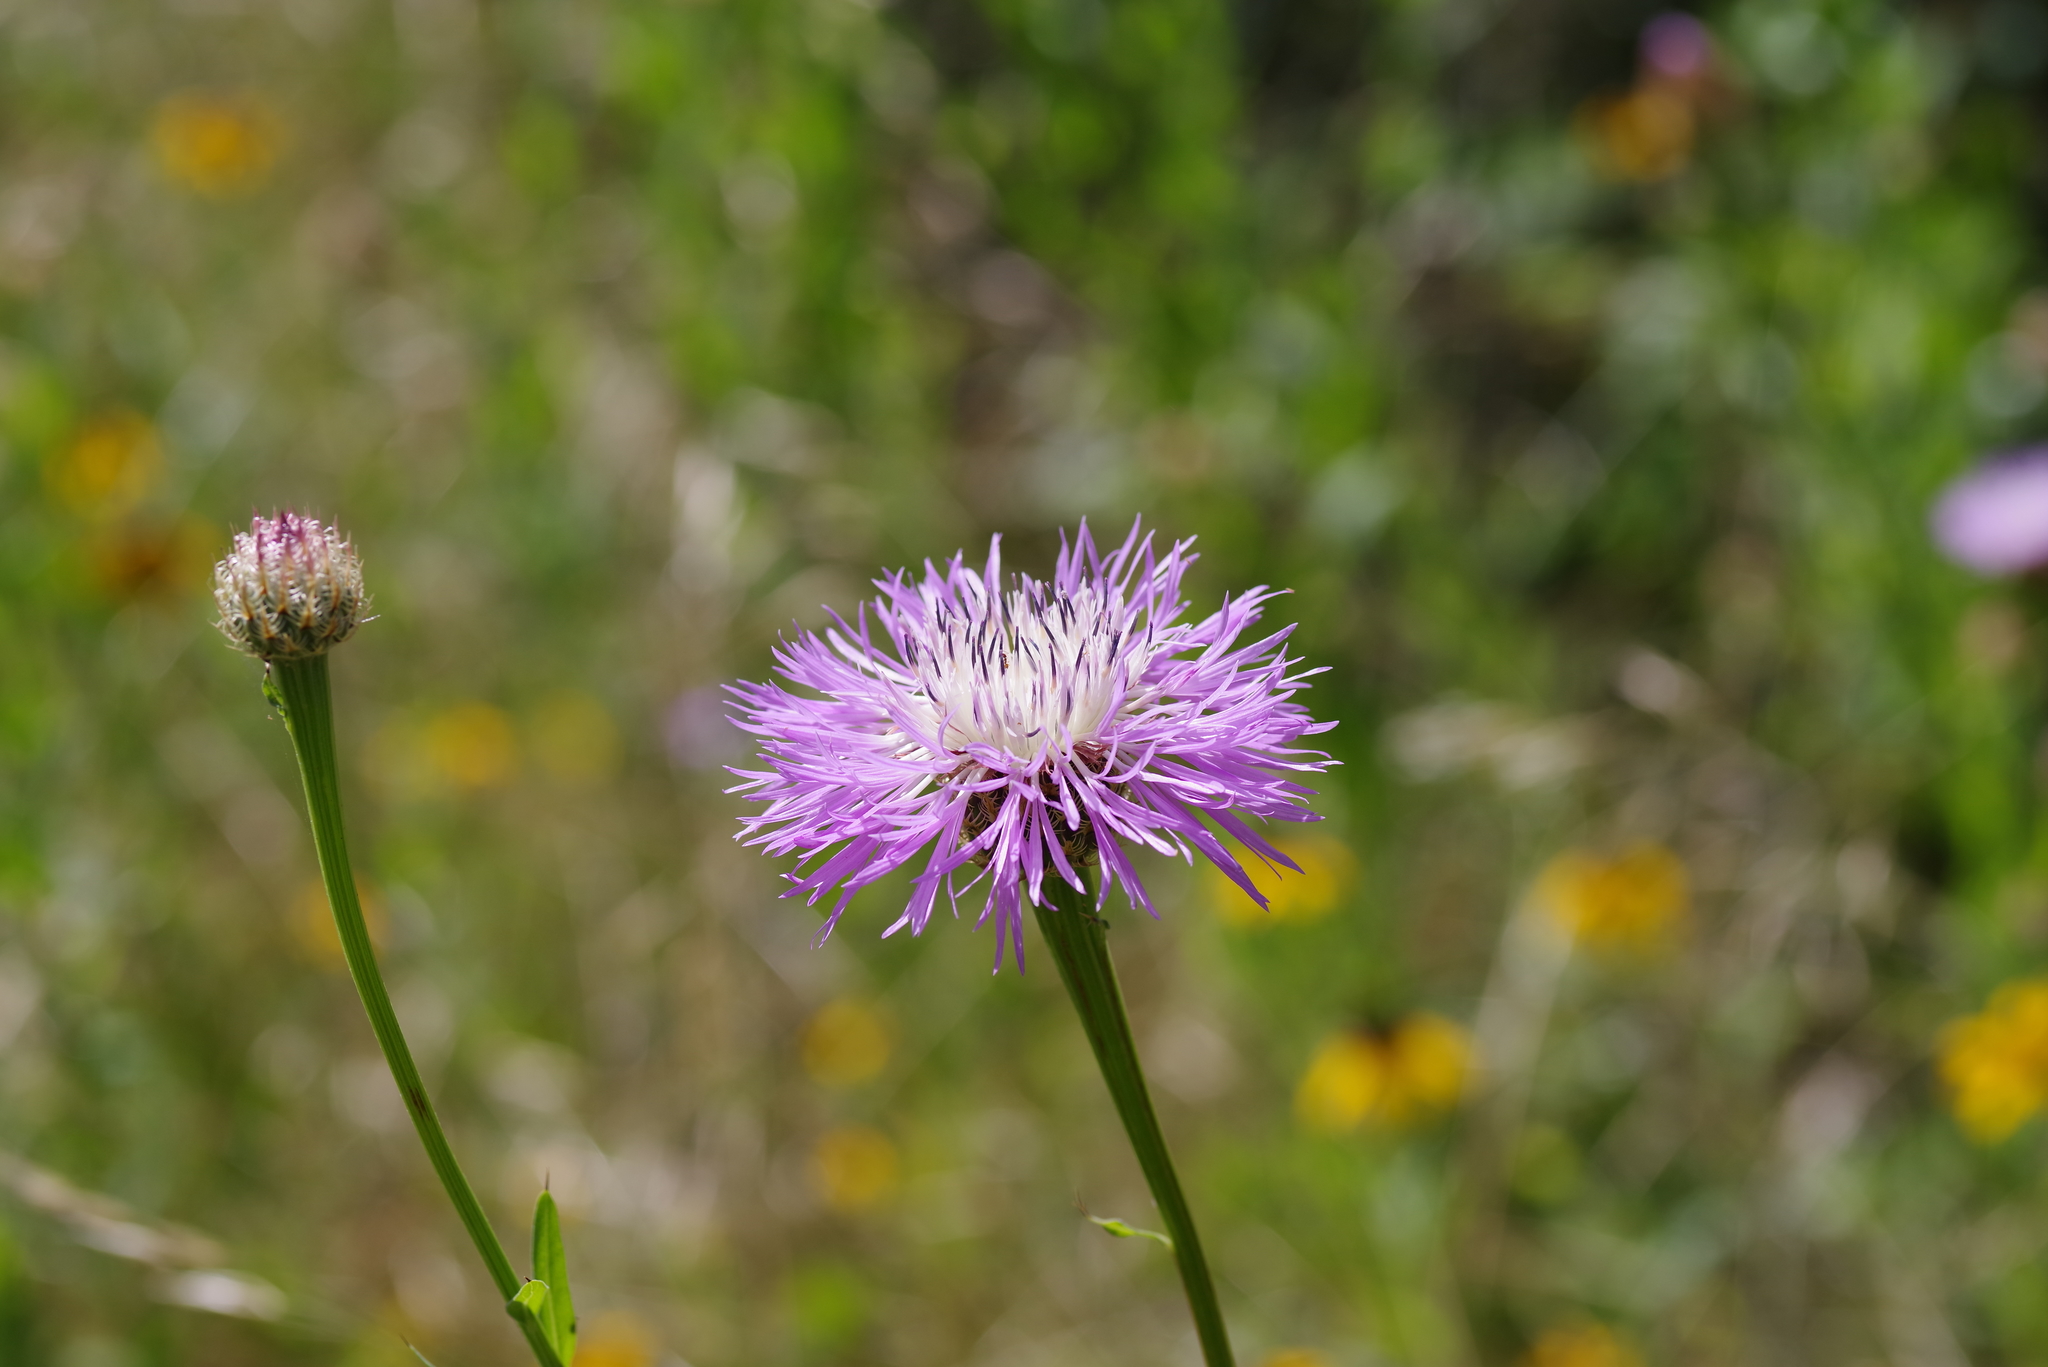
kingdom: Plantae
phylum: Tracheophyta
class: Magnoliopsida
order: Asterales
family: Asteraceae
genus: Plectocephalus
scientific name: Plectocephalus americanus
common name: American basket-flower
